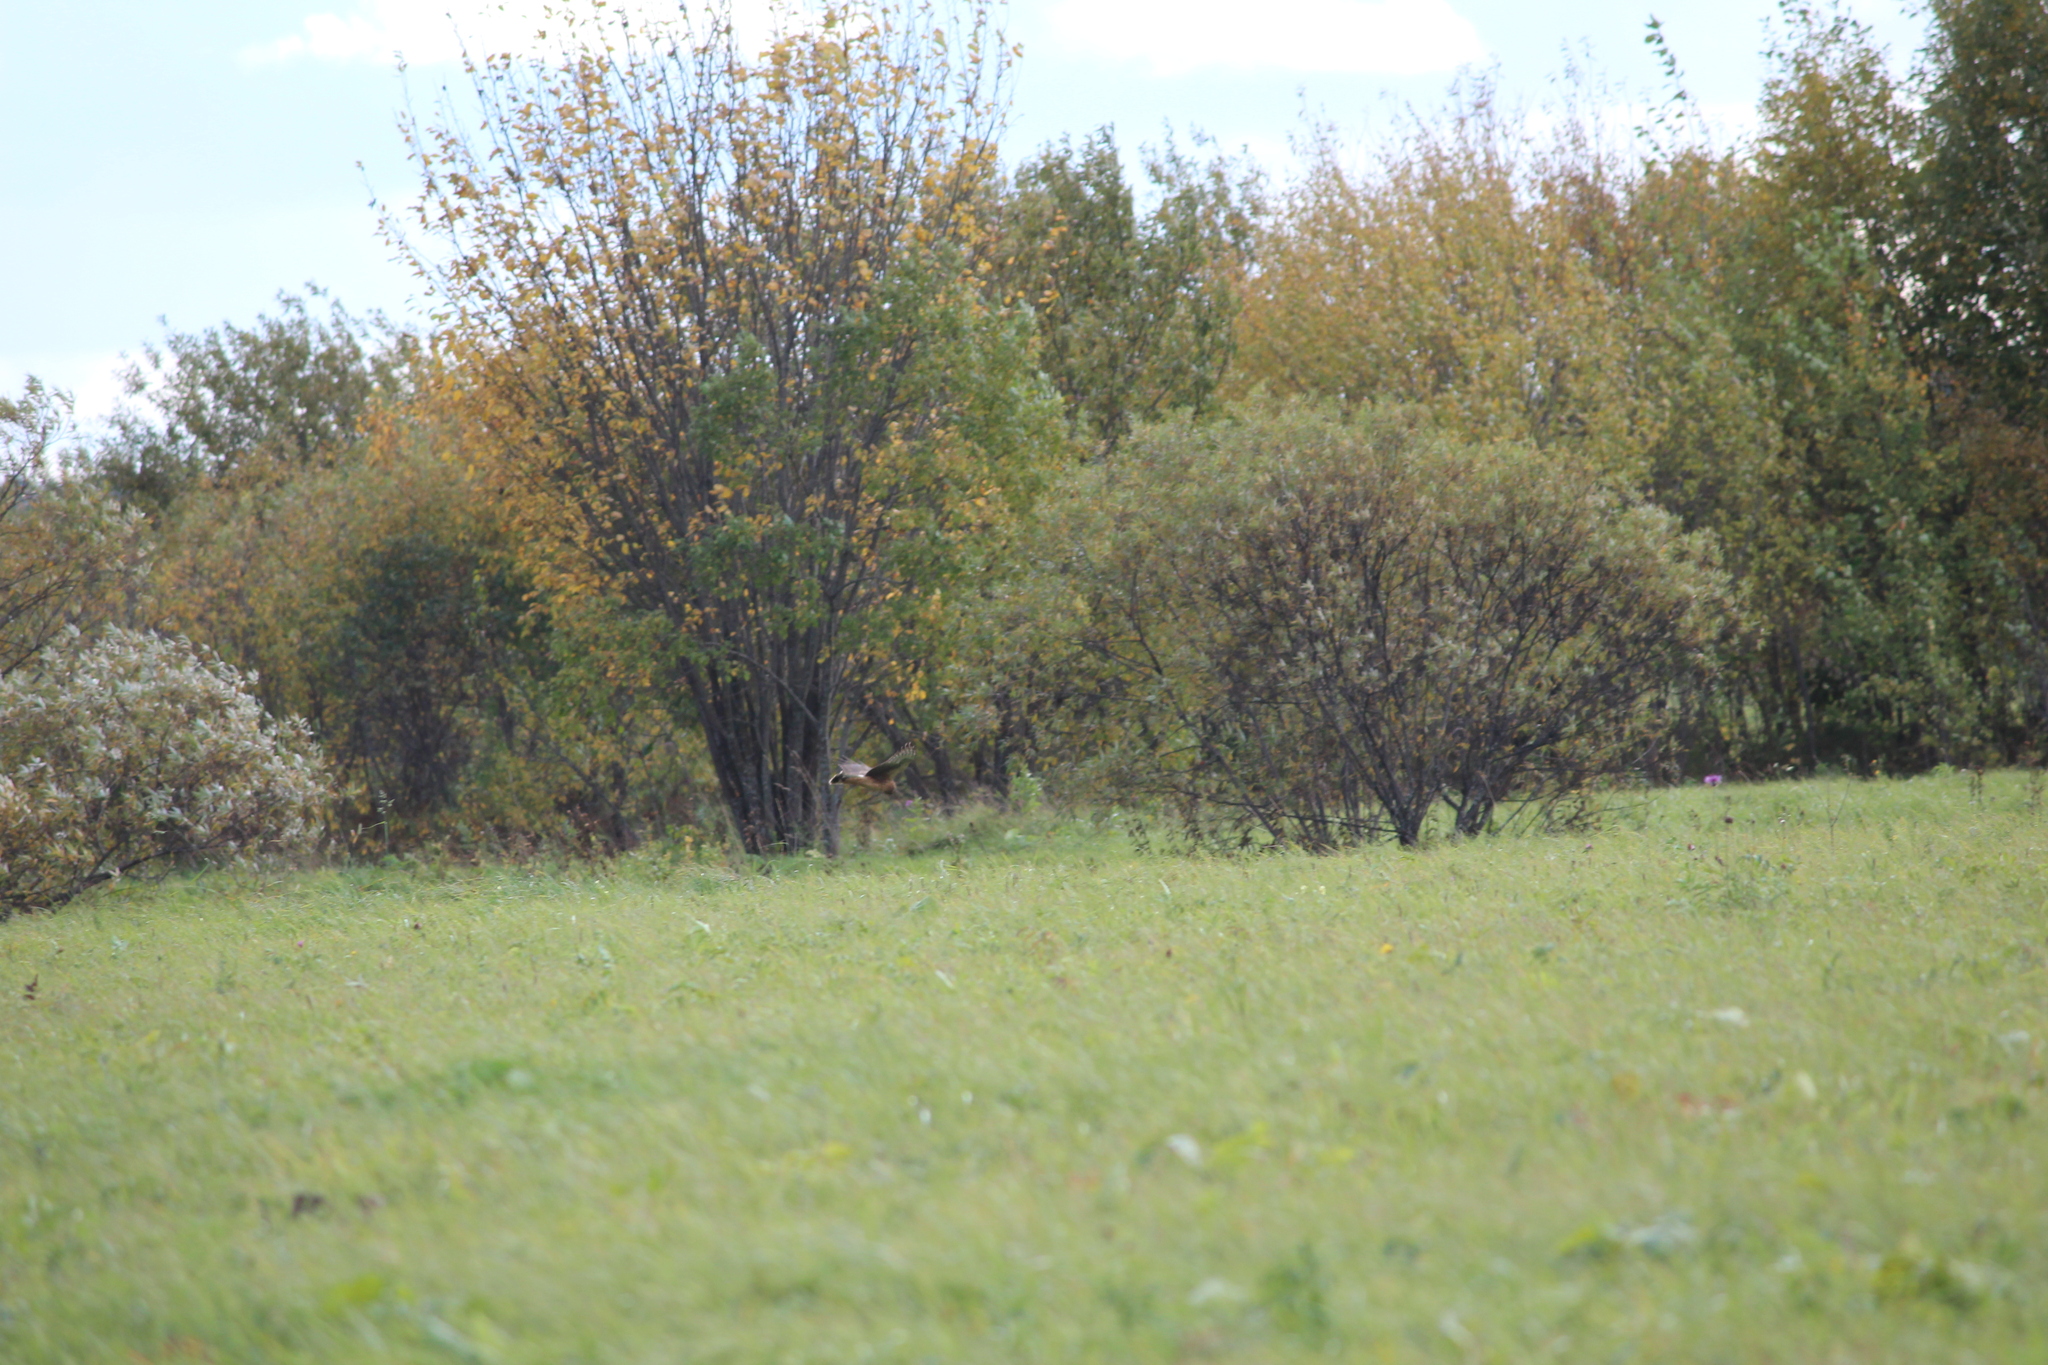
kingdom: Animalia
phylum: Chordata
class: Aves
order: Accipitriformes
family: Accipitridae
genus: Circus
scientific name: Circus cyaneus
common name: Hen harrier
